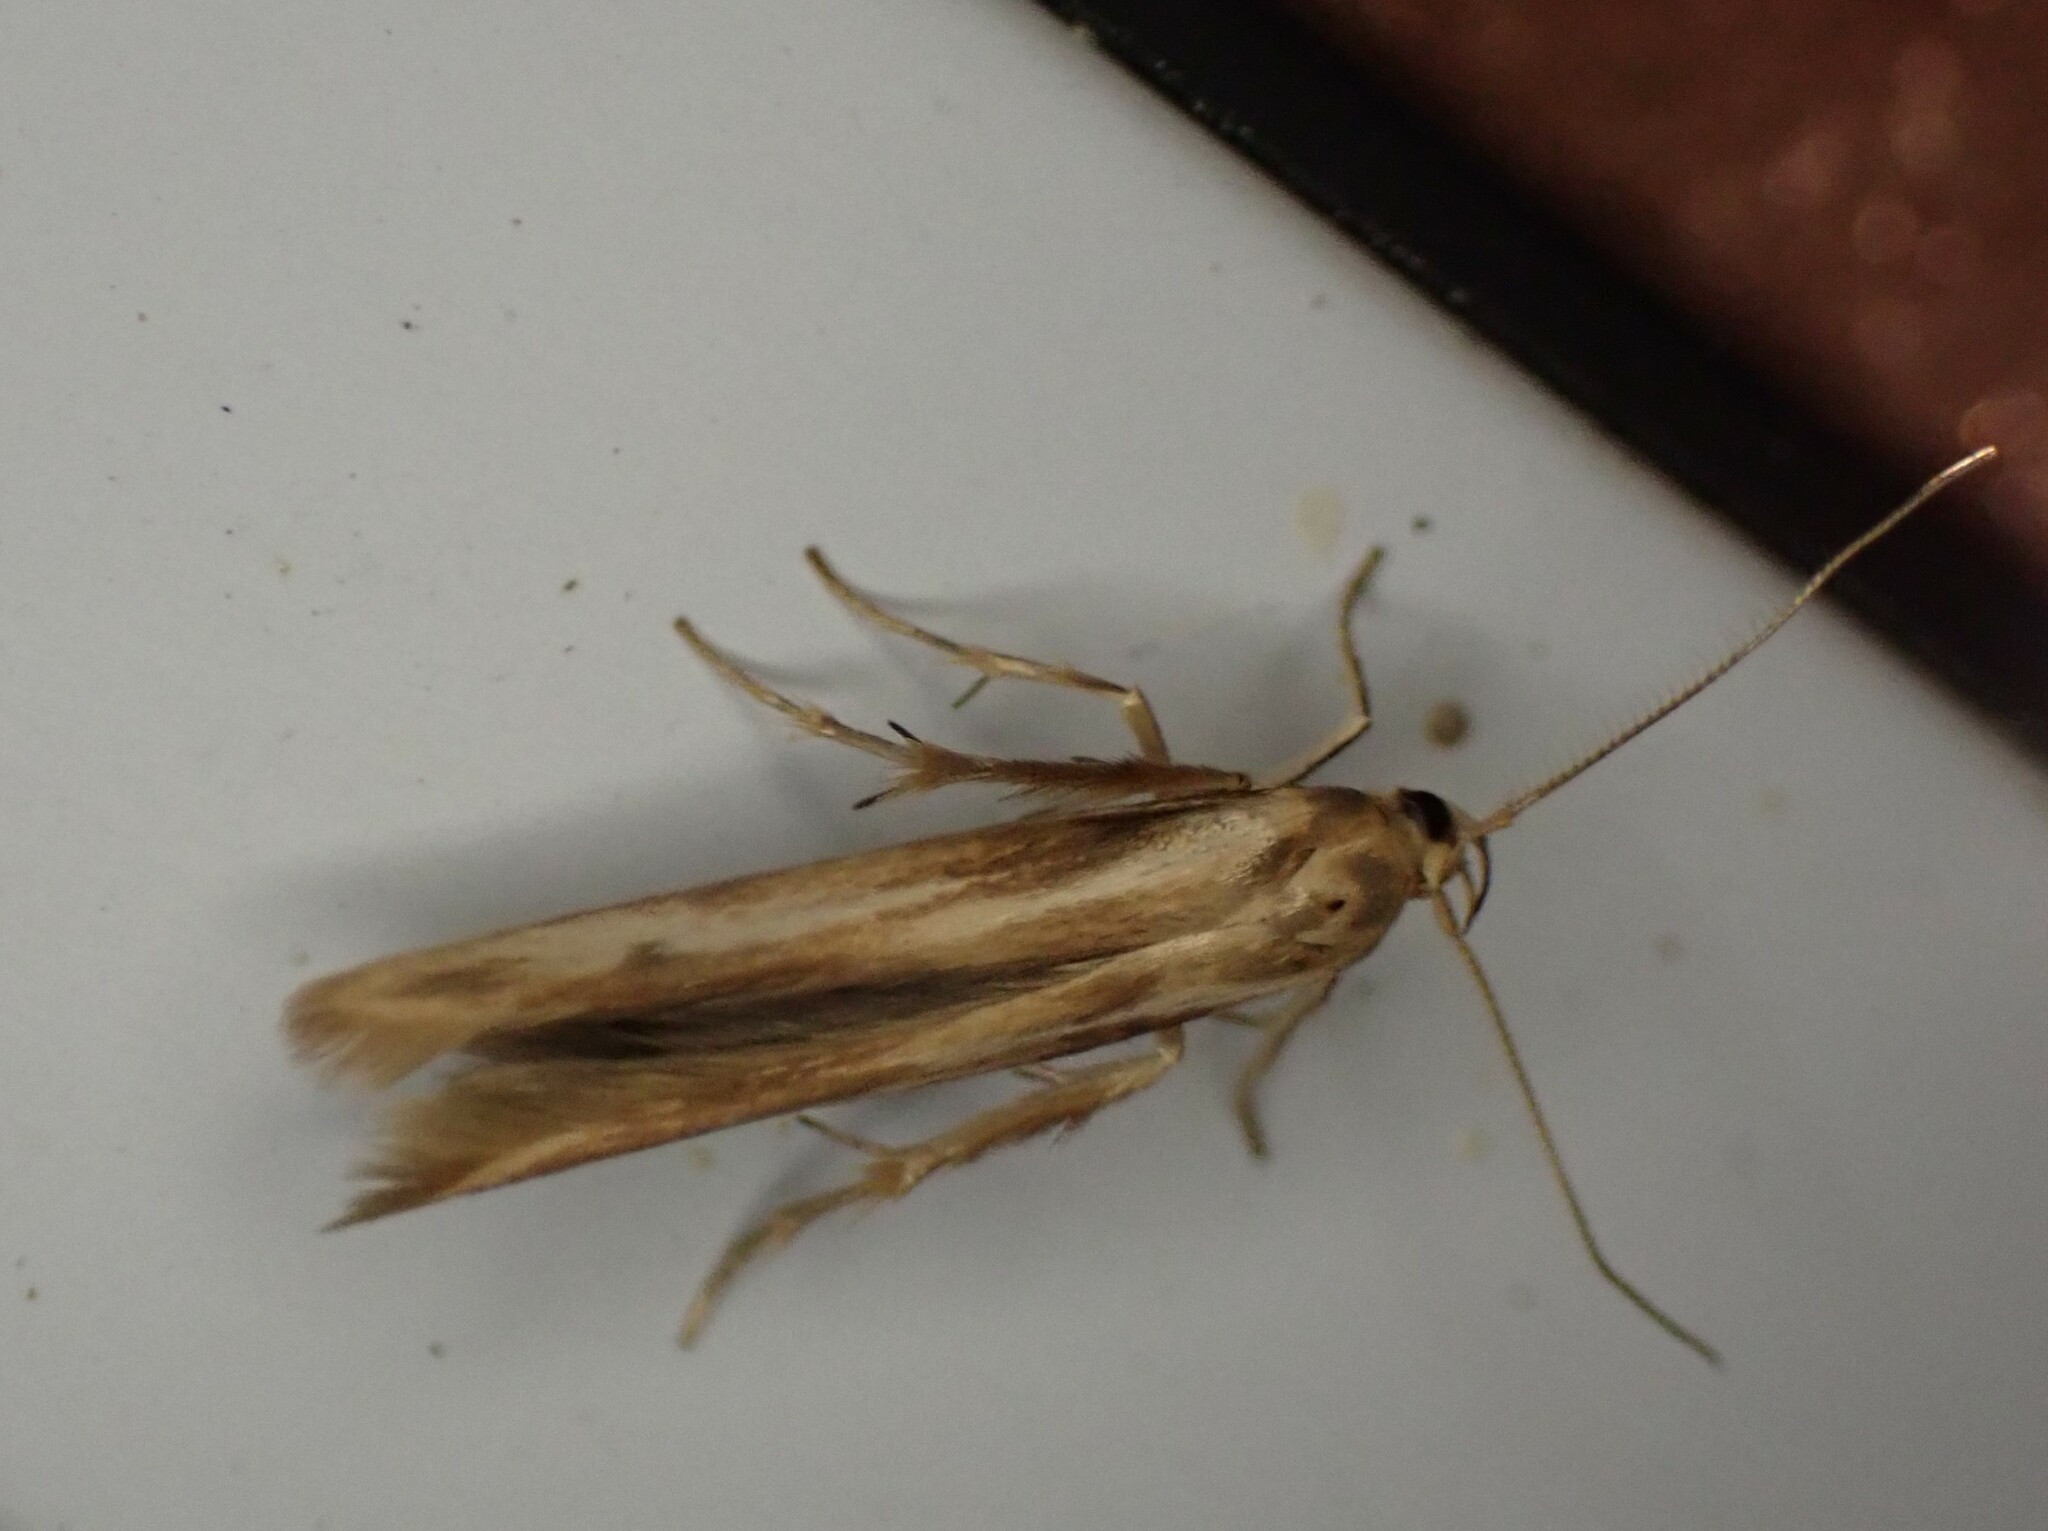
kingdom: Animalia
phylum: Arthropoda
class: Insecta
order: Lepidoptera
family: Stathmopodidae
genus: Stathmopoda
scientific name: Stathmopoda aposema
